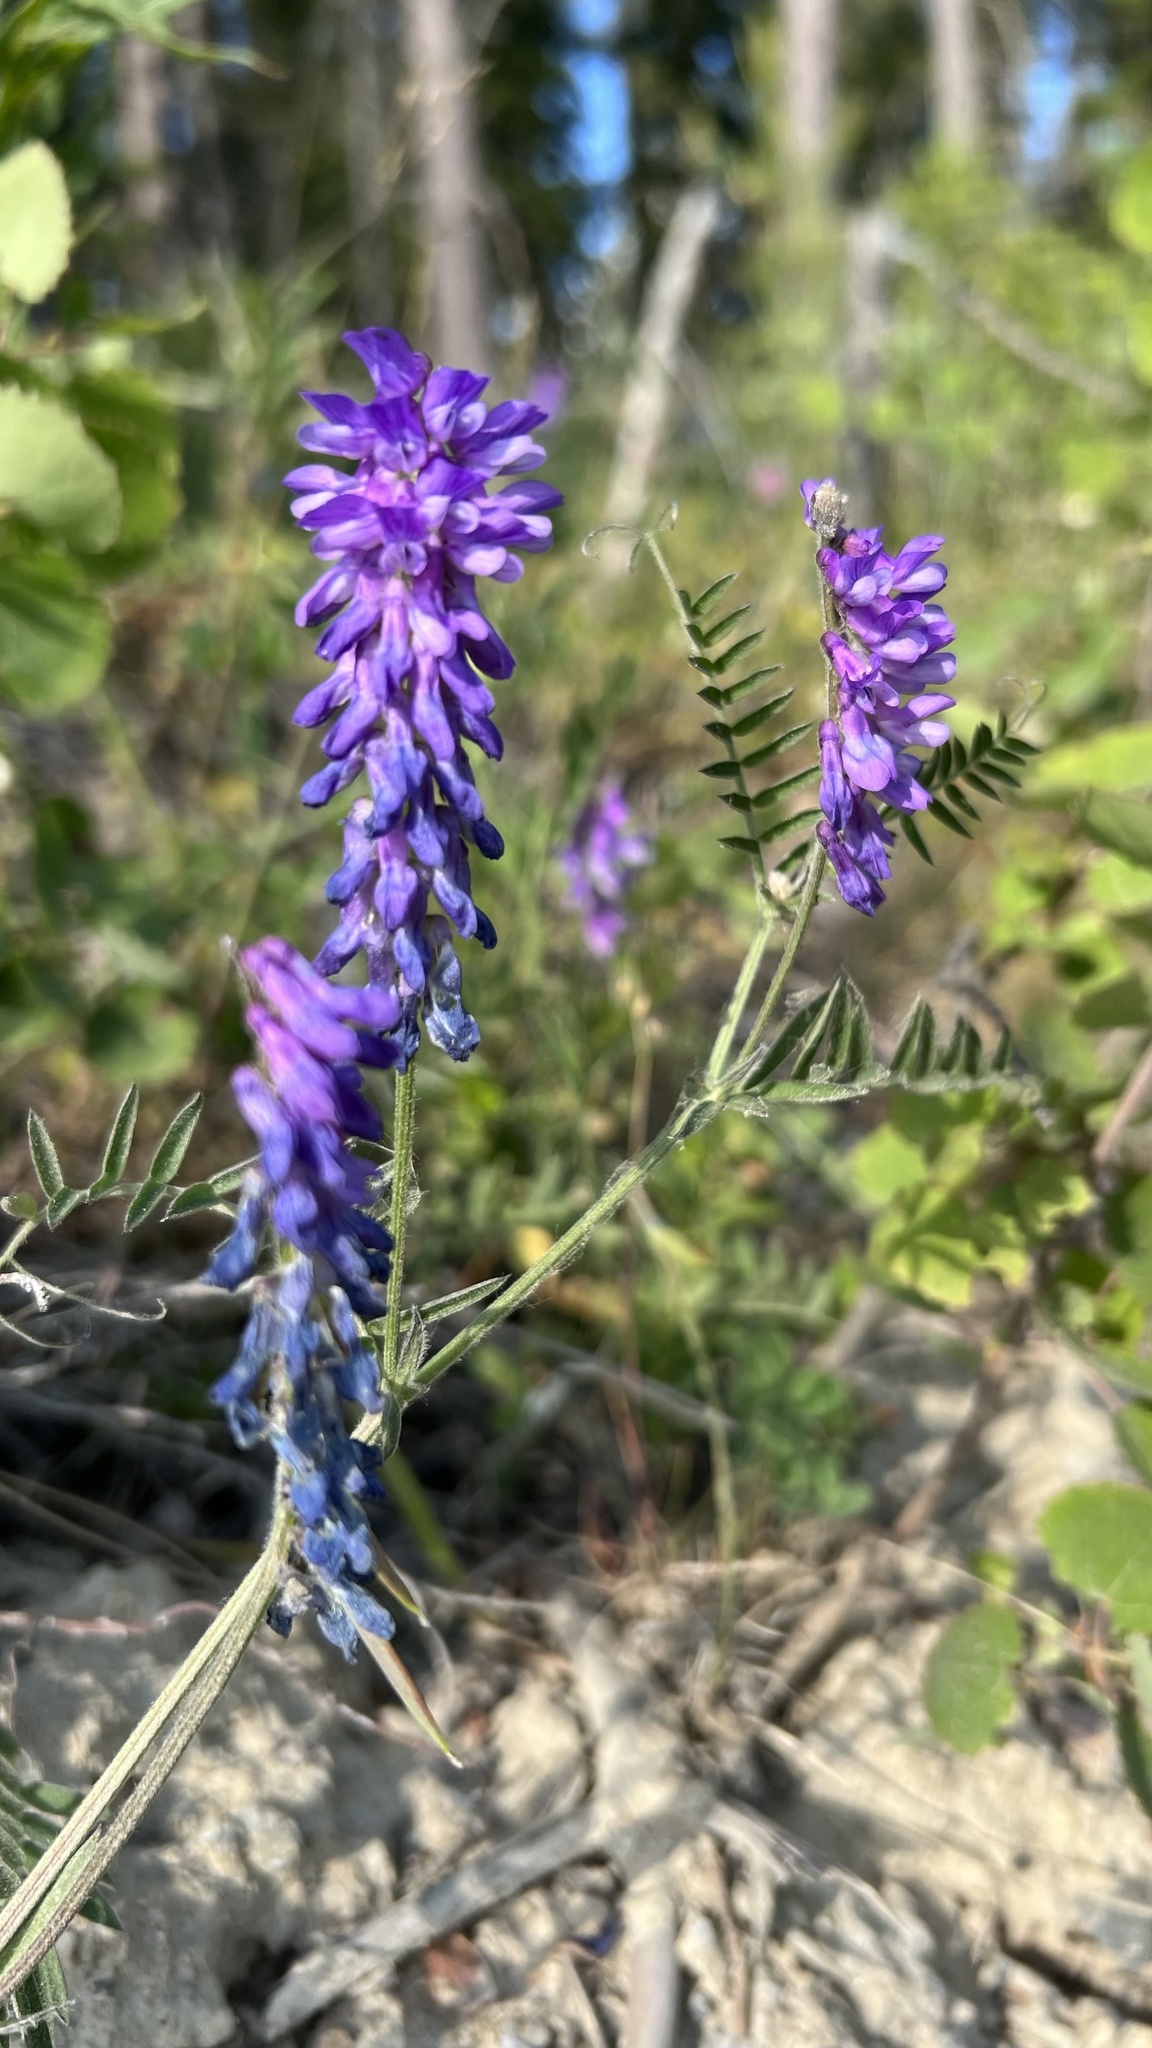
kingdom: Plantae
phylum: Tracheophyta
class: Magnoliopsida
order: Fabales
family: Fabaceae
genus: Vicia
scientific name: Vicia cracca
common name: Bird vetch
